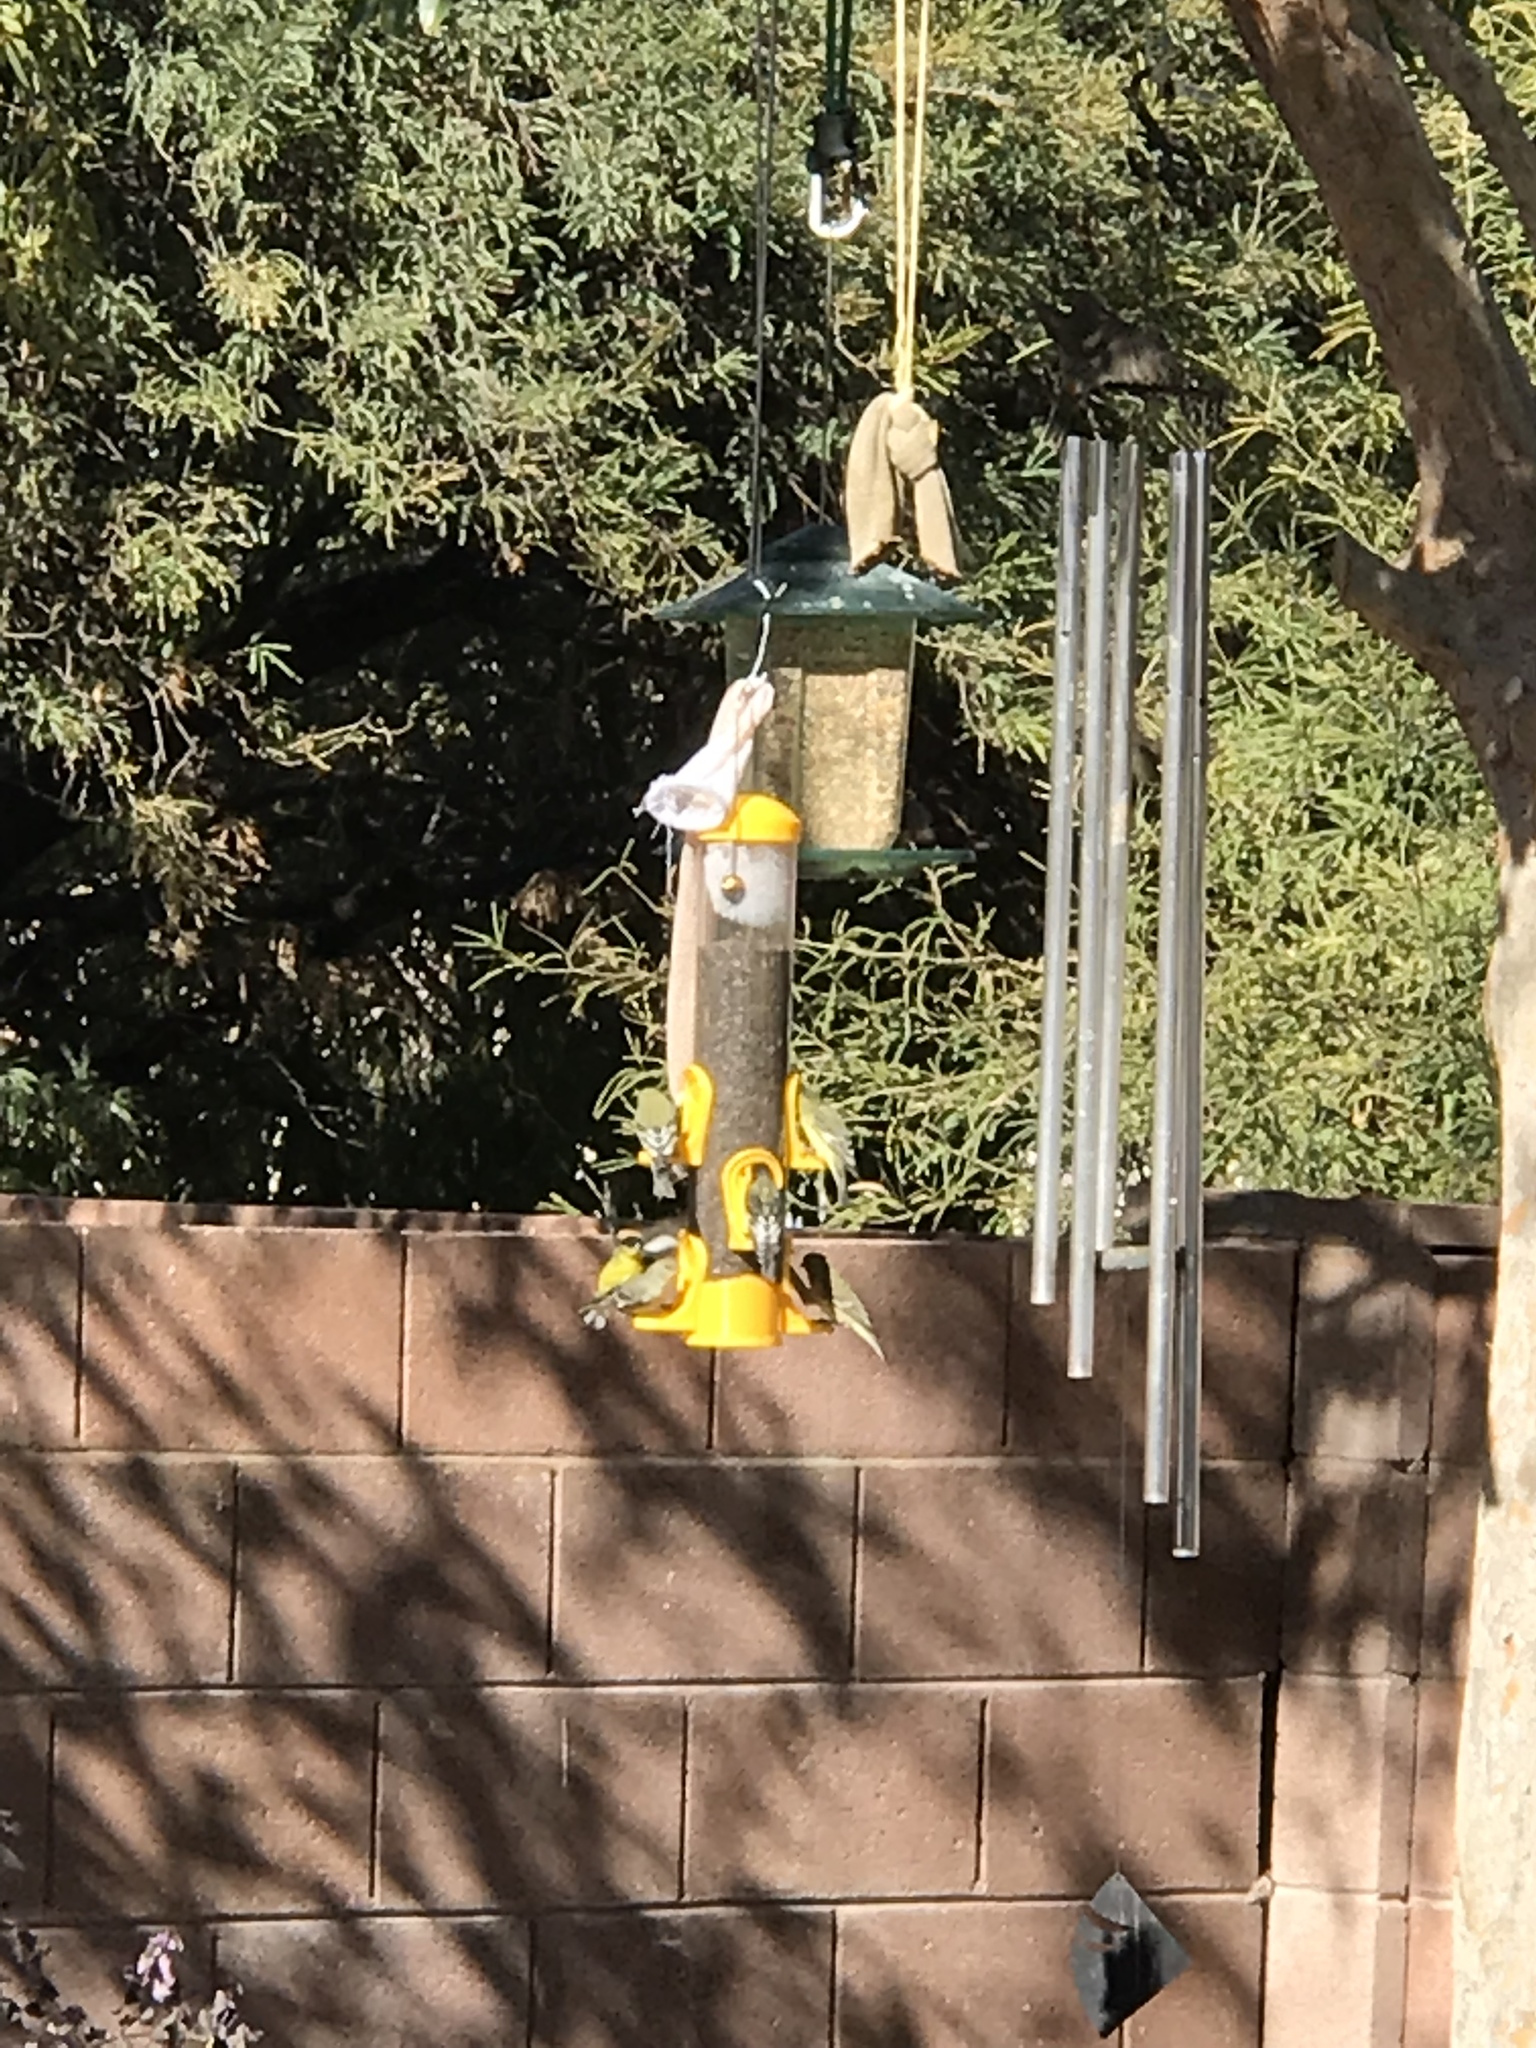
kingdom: Animalia
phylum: Chordata
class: Aves
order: Passeriformes
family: Fringillidae
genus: Spinus
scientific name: Spinus psaltria
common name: Lesser goldfinch
